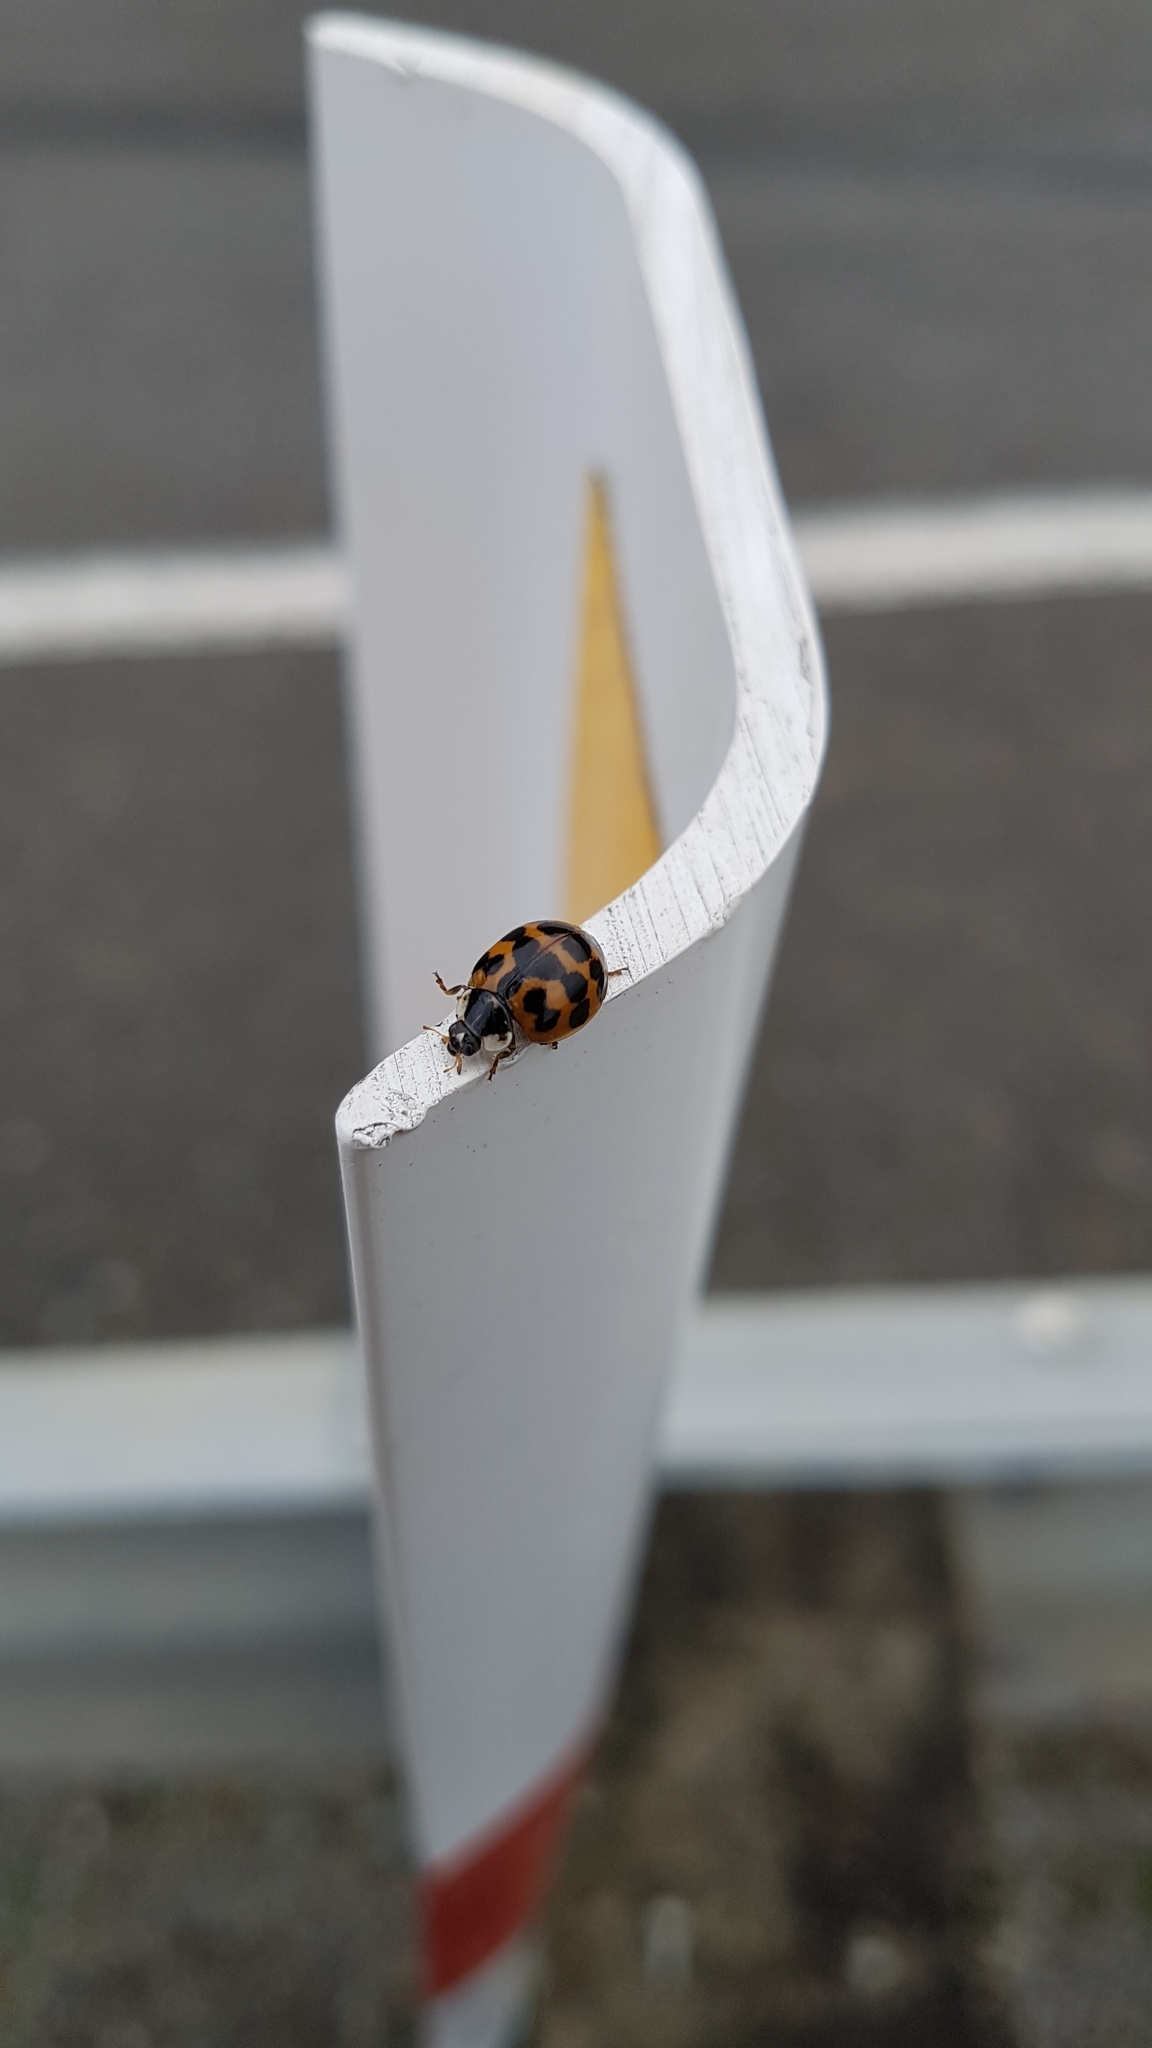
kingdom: Animalia
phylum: Arthropoda
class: Insecta
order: Coleoptera
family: Coccinellidae
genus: Harmonia
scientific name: Harmonia axyridis
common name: Harlequin ladybird
